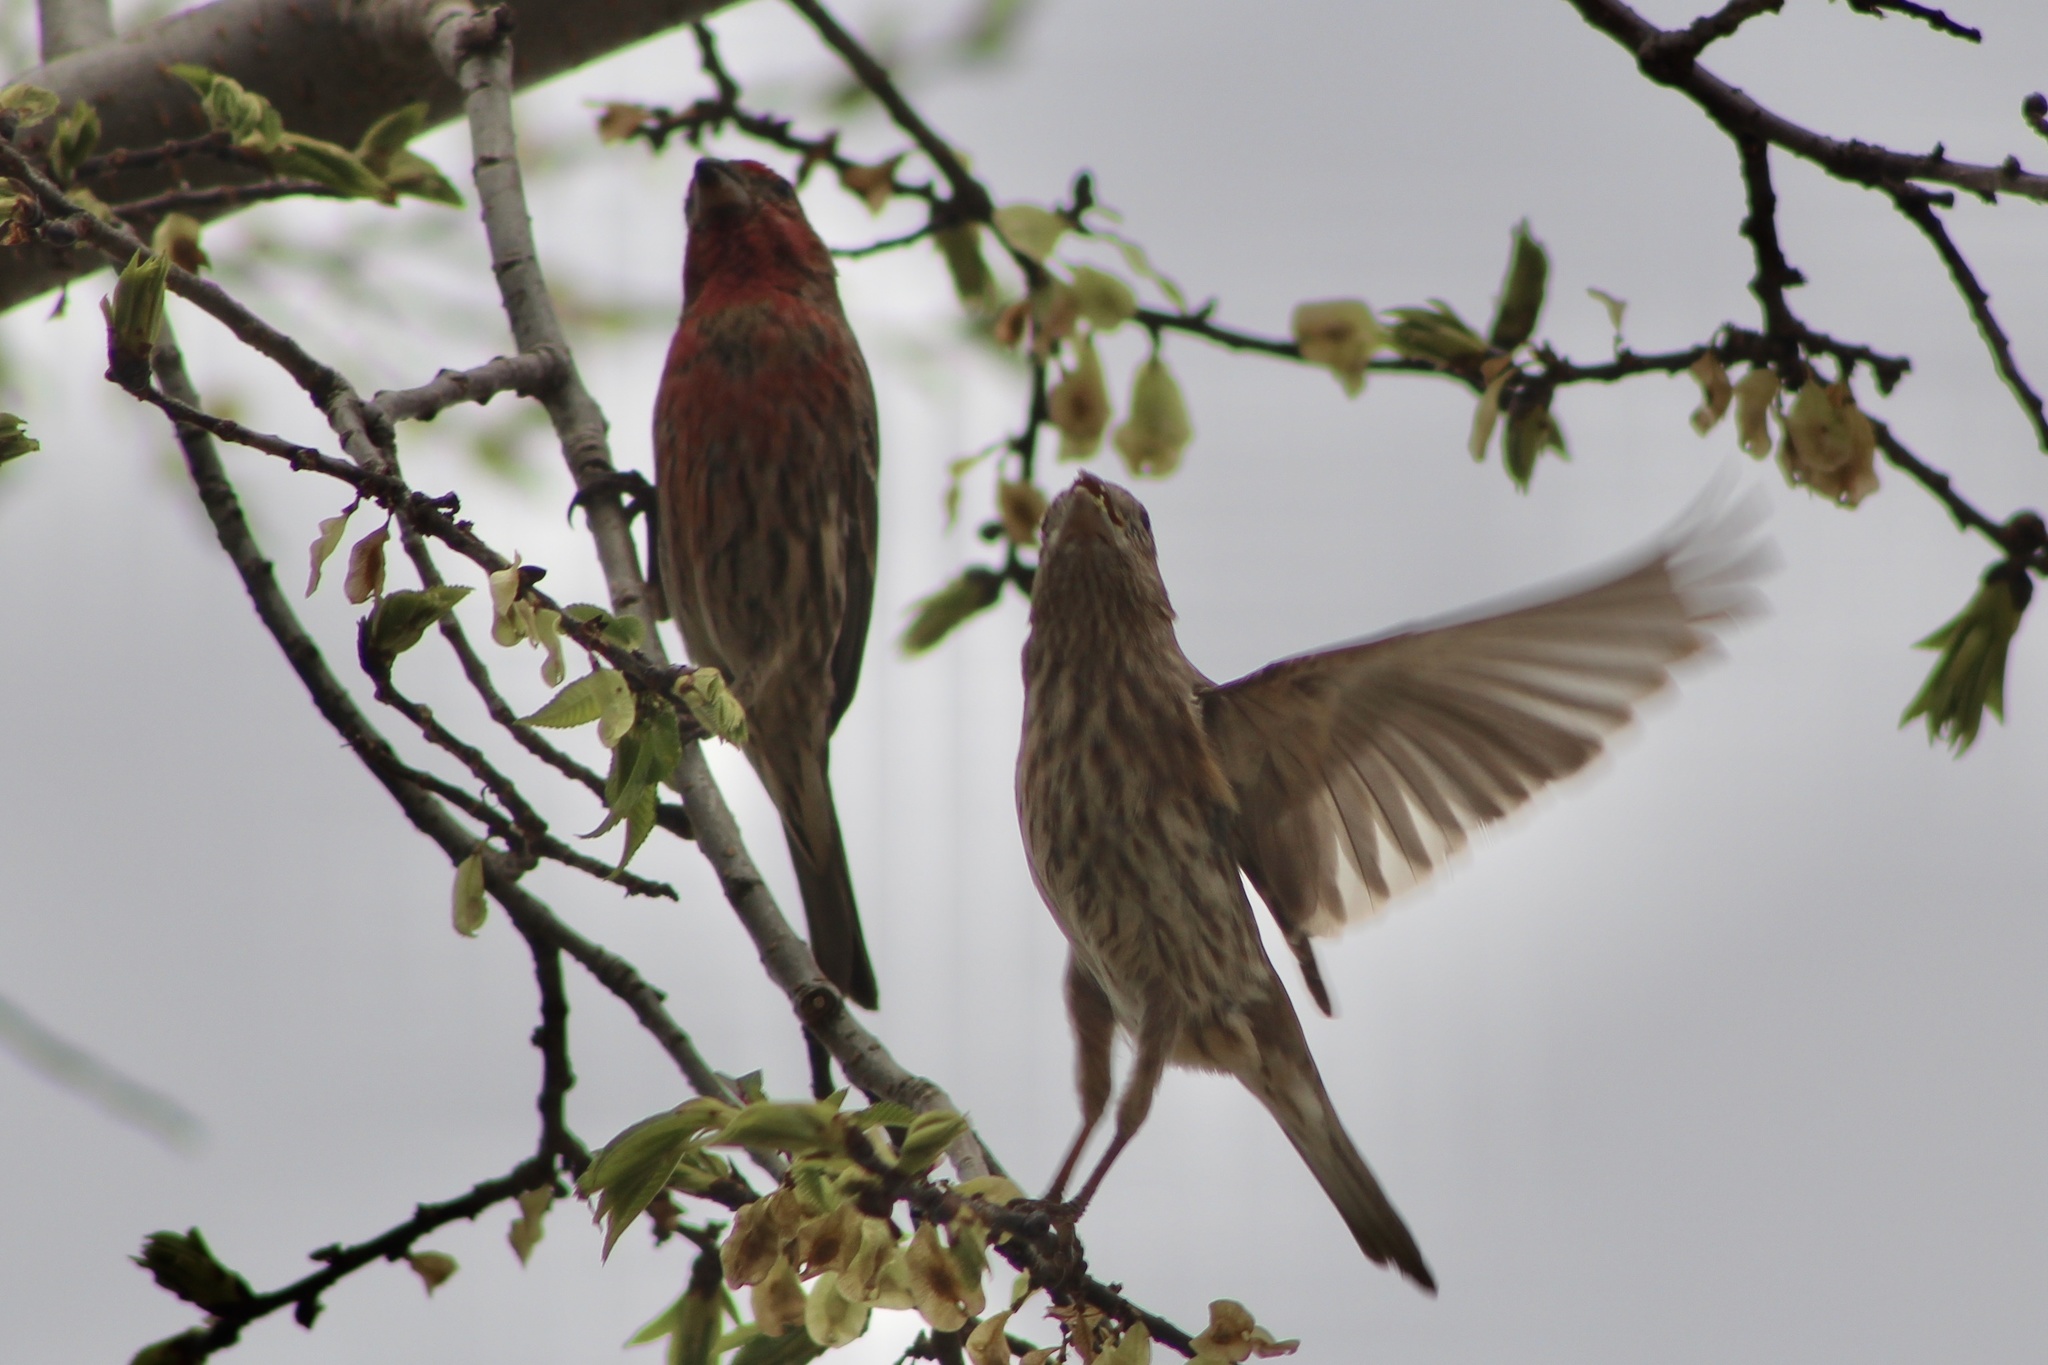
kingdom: Animalia
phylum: Chordata
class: Aves
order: Passeriformes
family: Fringillidae
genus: Haemorhous
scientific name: Haemorhous mexicanus
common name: House finch
